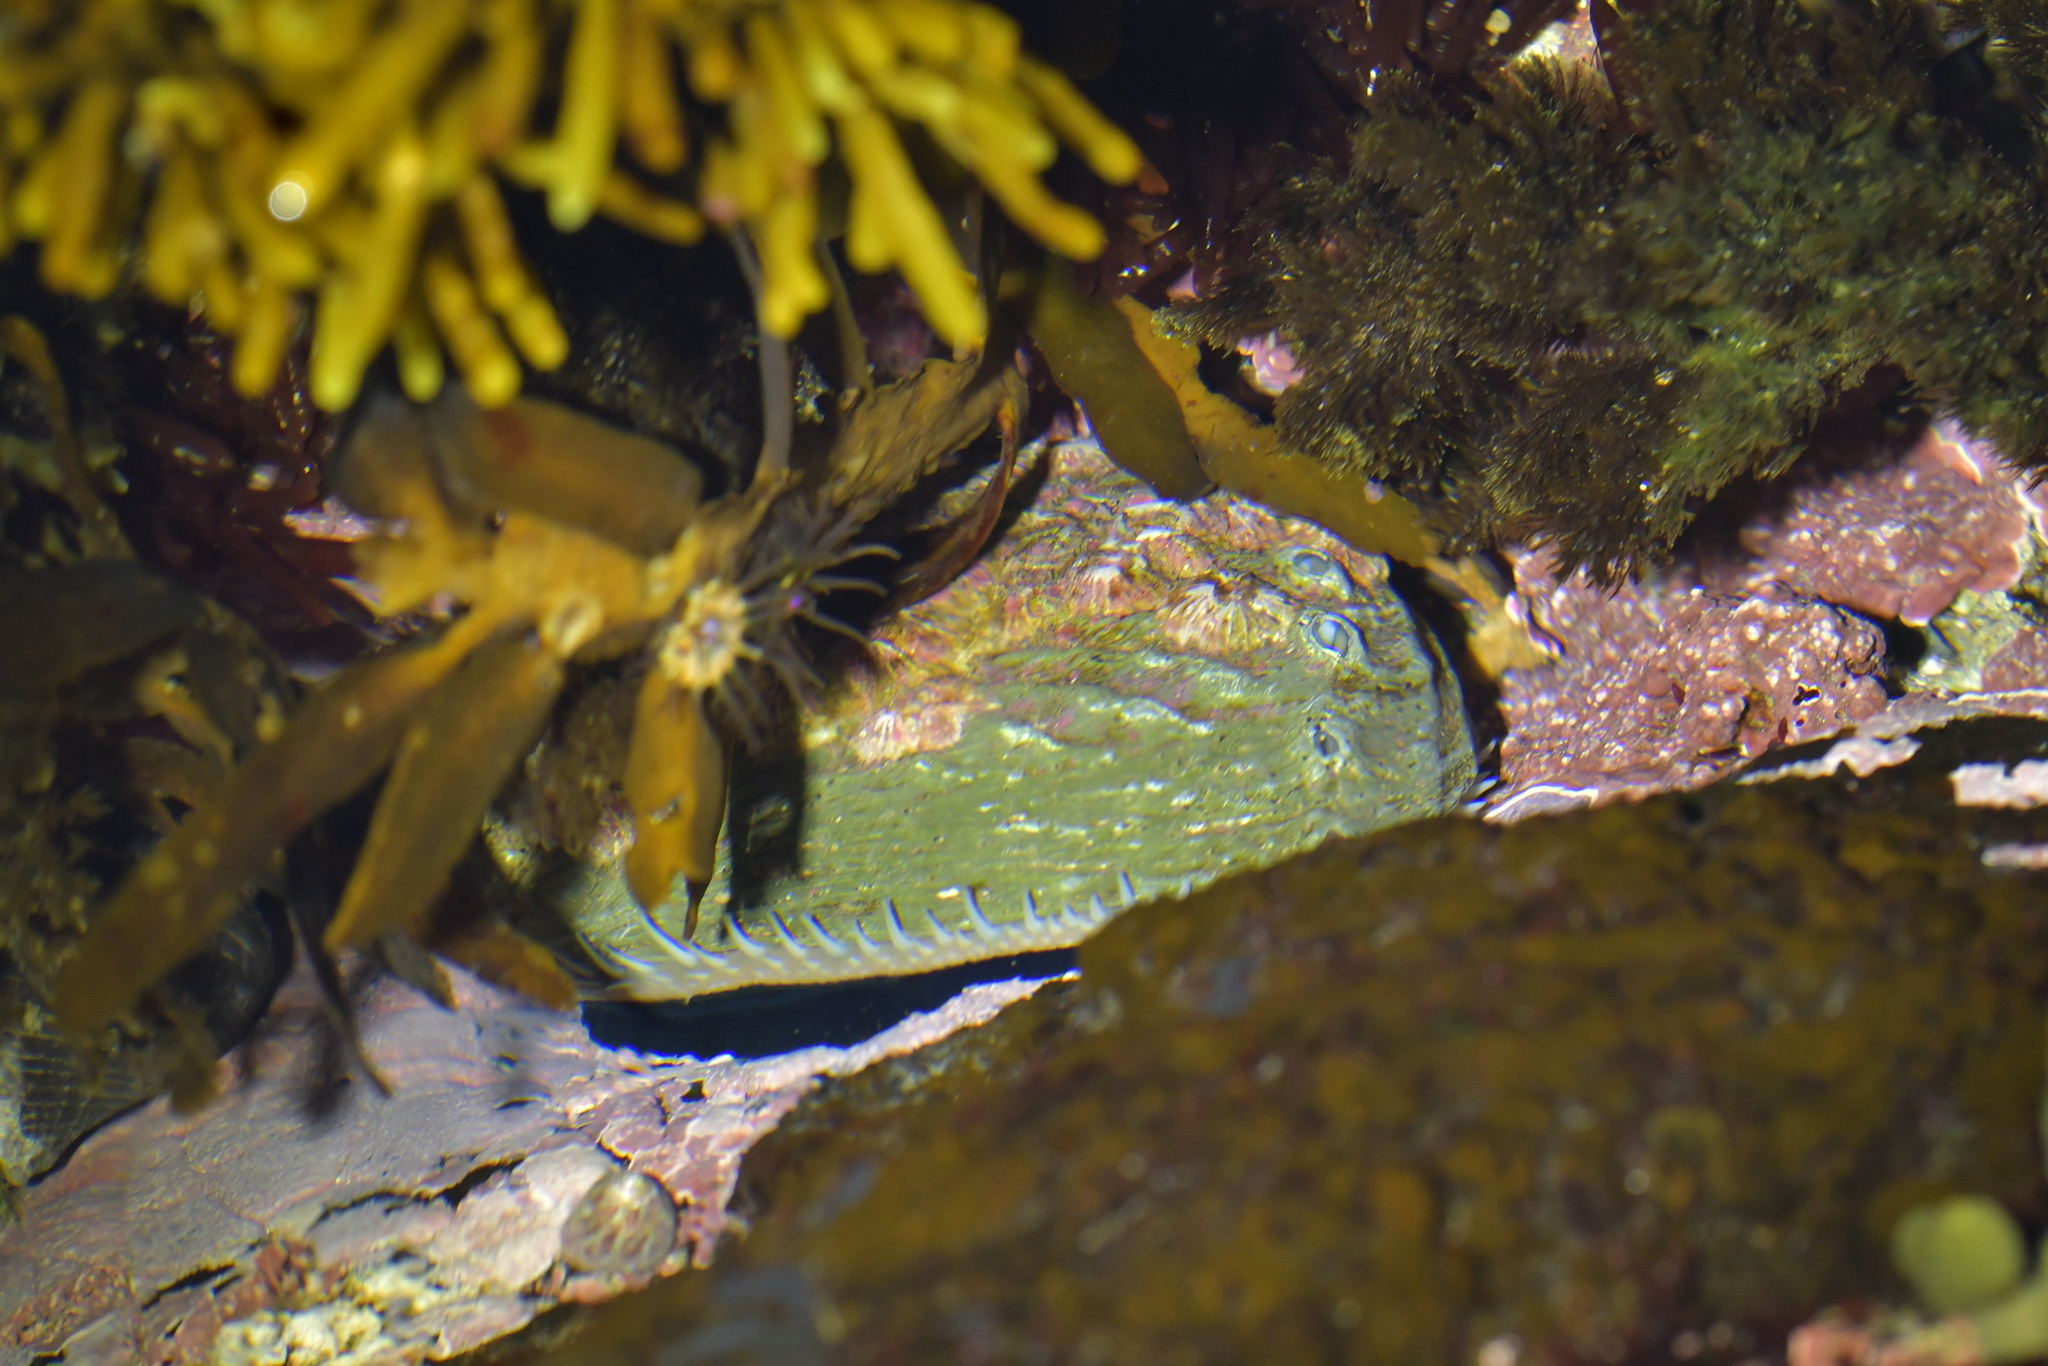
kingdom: Animalia
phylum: Mollusca
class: Gastropoda
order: Lepetellida
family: Haliotidae
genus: Haliotis
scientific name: Haliotis australis
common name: Silver abalone
